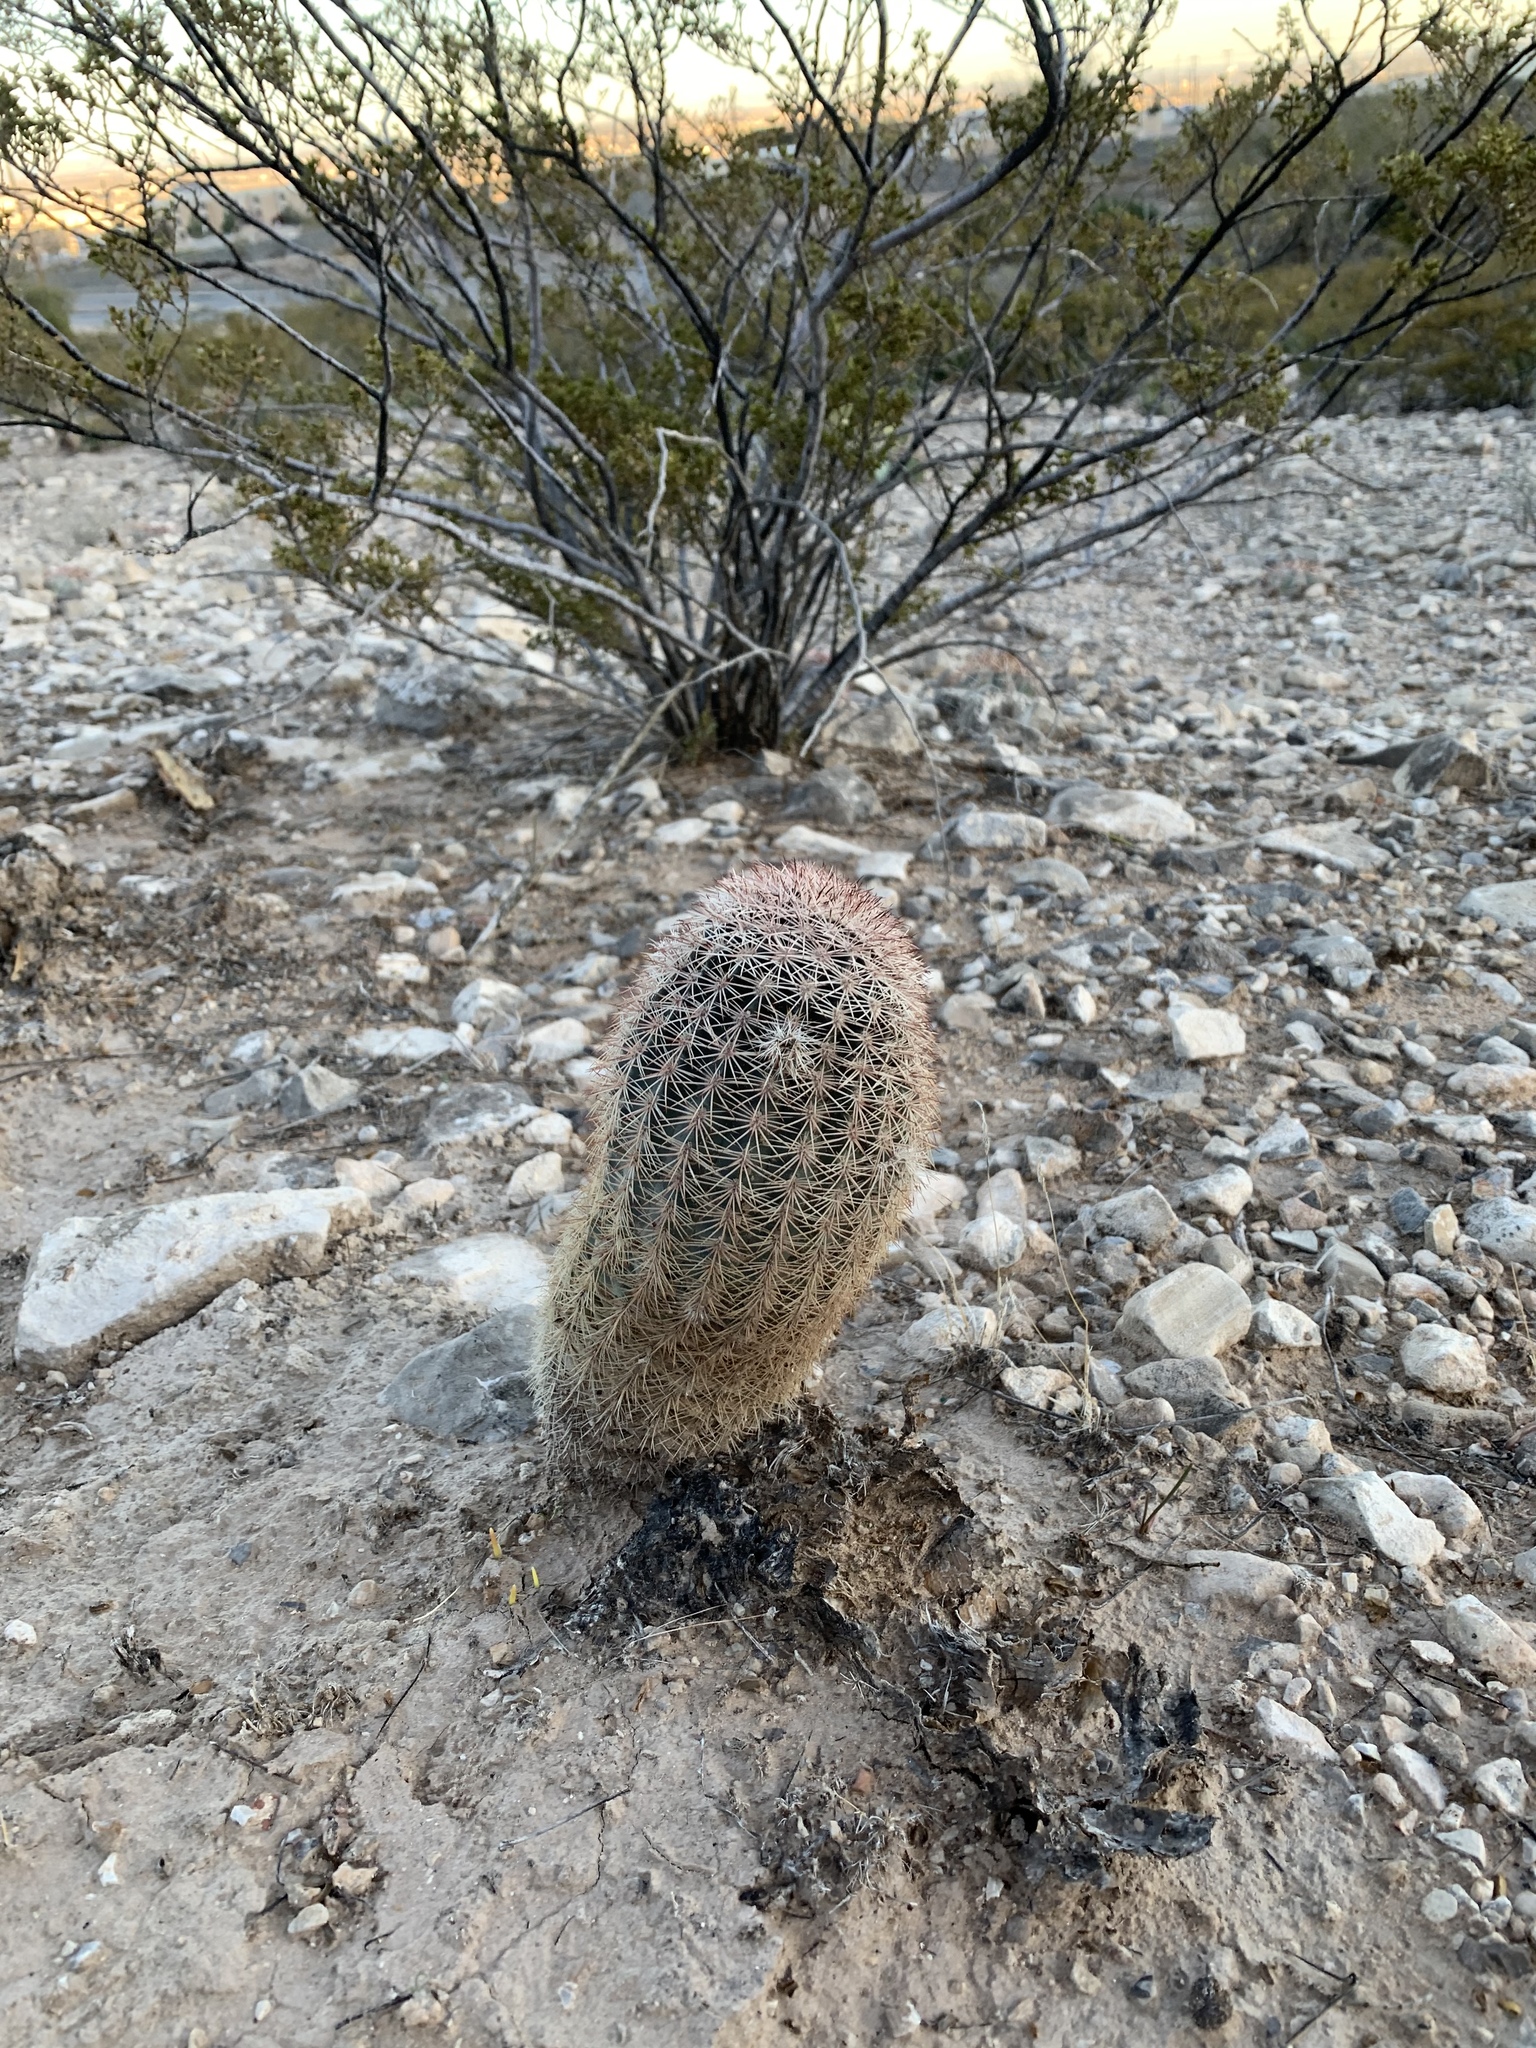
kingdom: Plantae
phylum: Tracheophyta
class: Magnoliopsida
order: Caryophyllales
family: Cactaceae
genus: Echinocereus
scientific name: Echinocereus dasyacanthus
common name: Spiny hedgehog cactus
